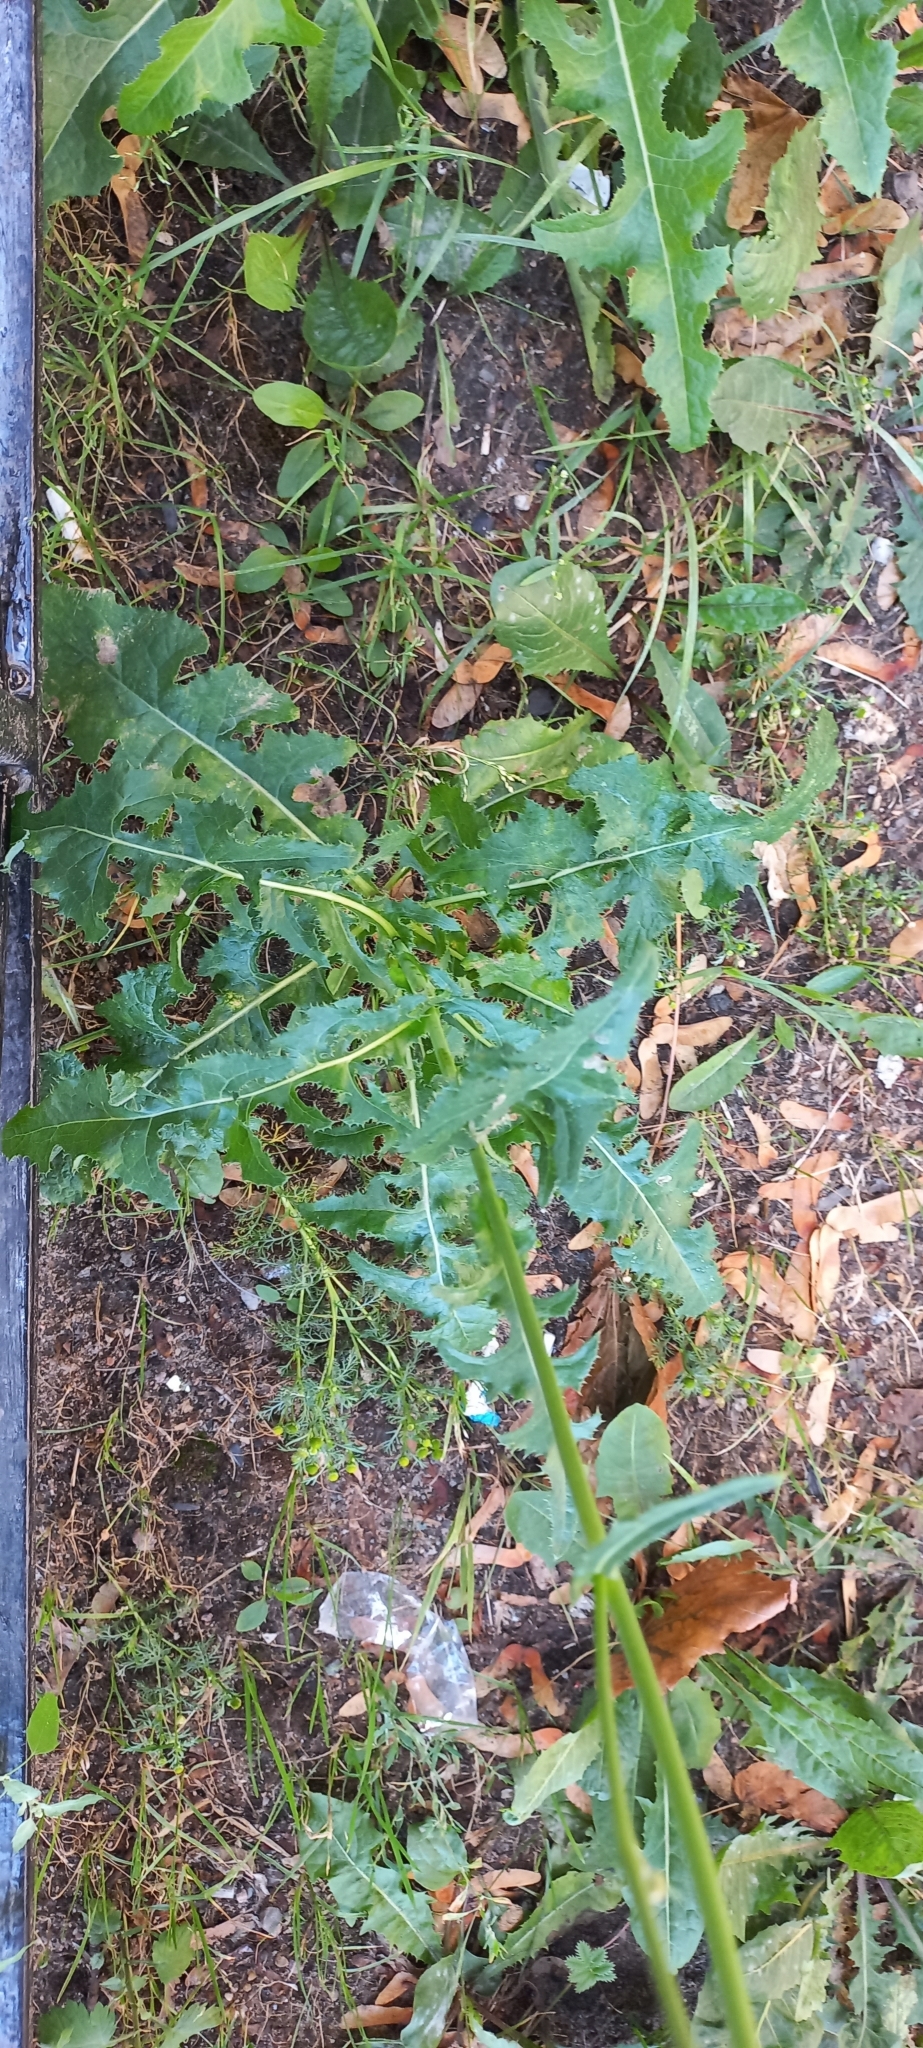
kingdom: Plantae
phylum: Tracheophyta
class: Magnoliopsida
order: Asterales
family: Asteraceae
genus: Sonchus
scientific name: Sonchus arvensis
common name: Perennial sow-thistle
